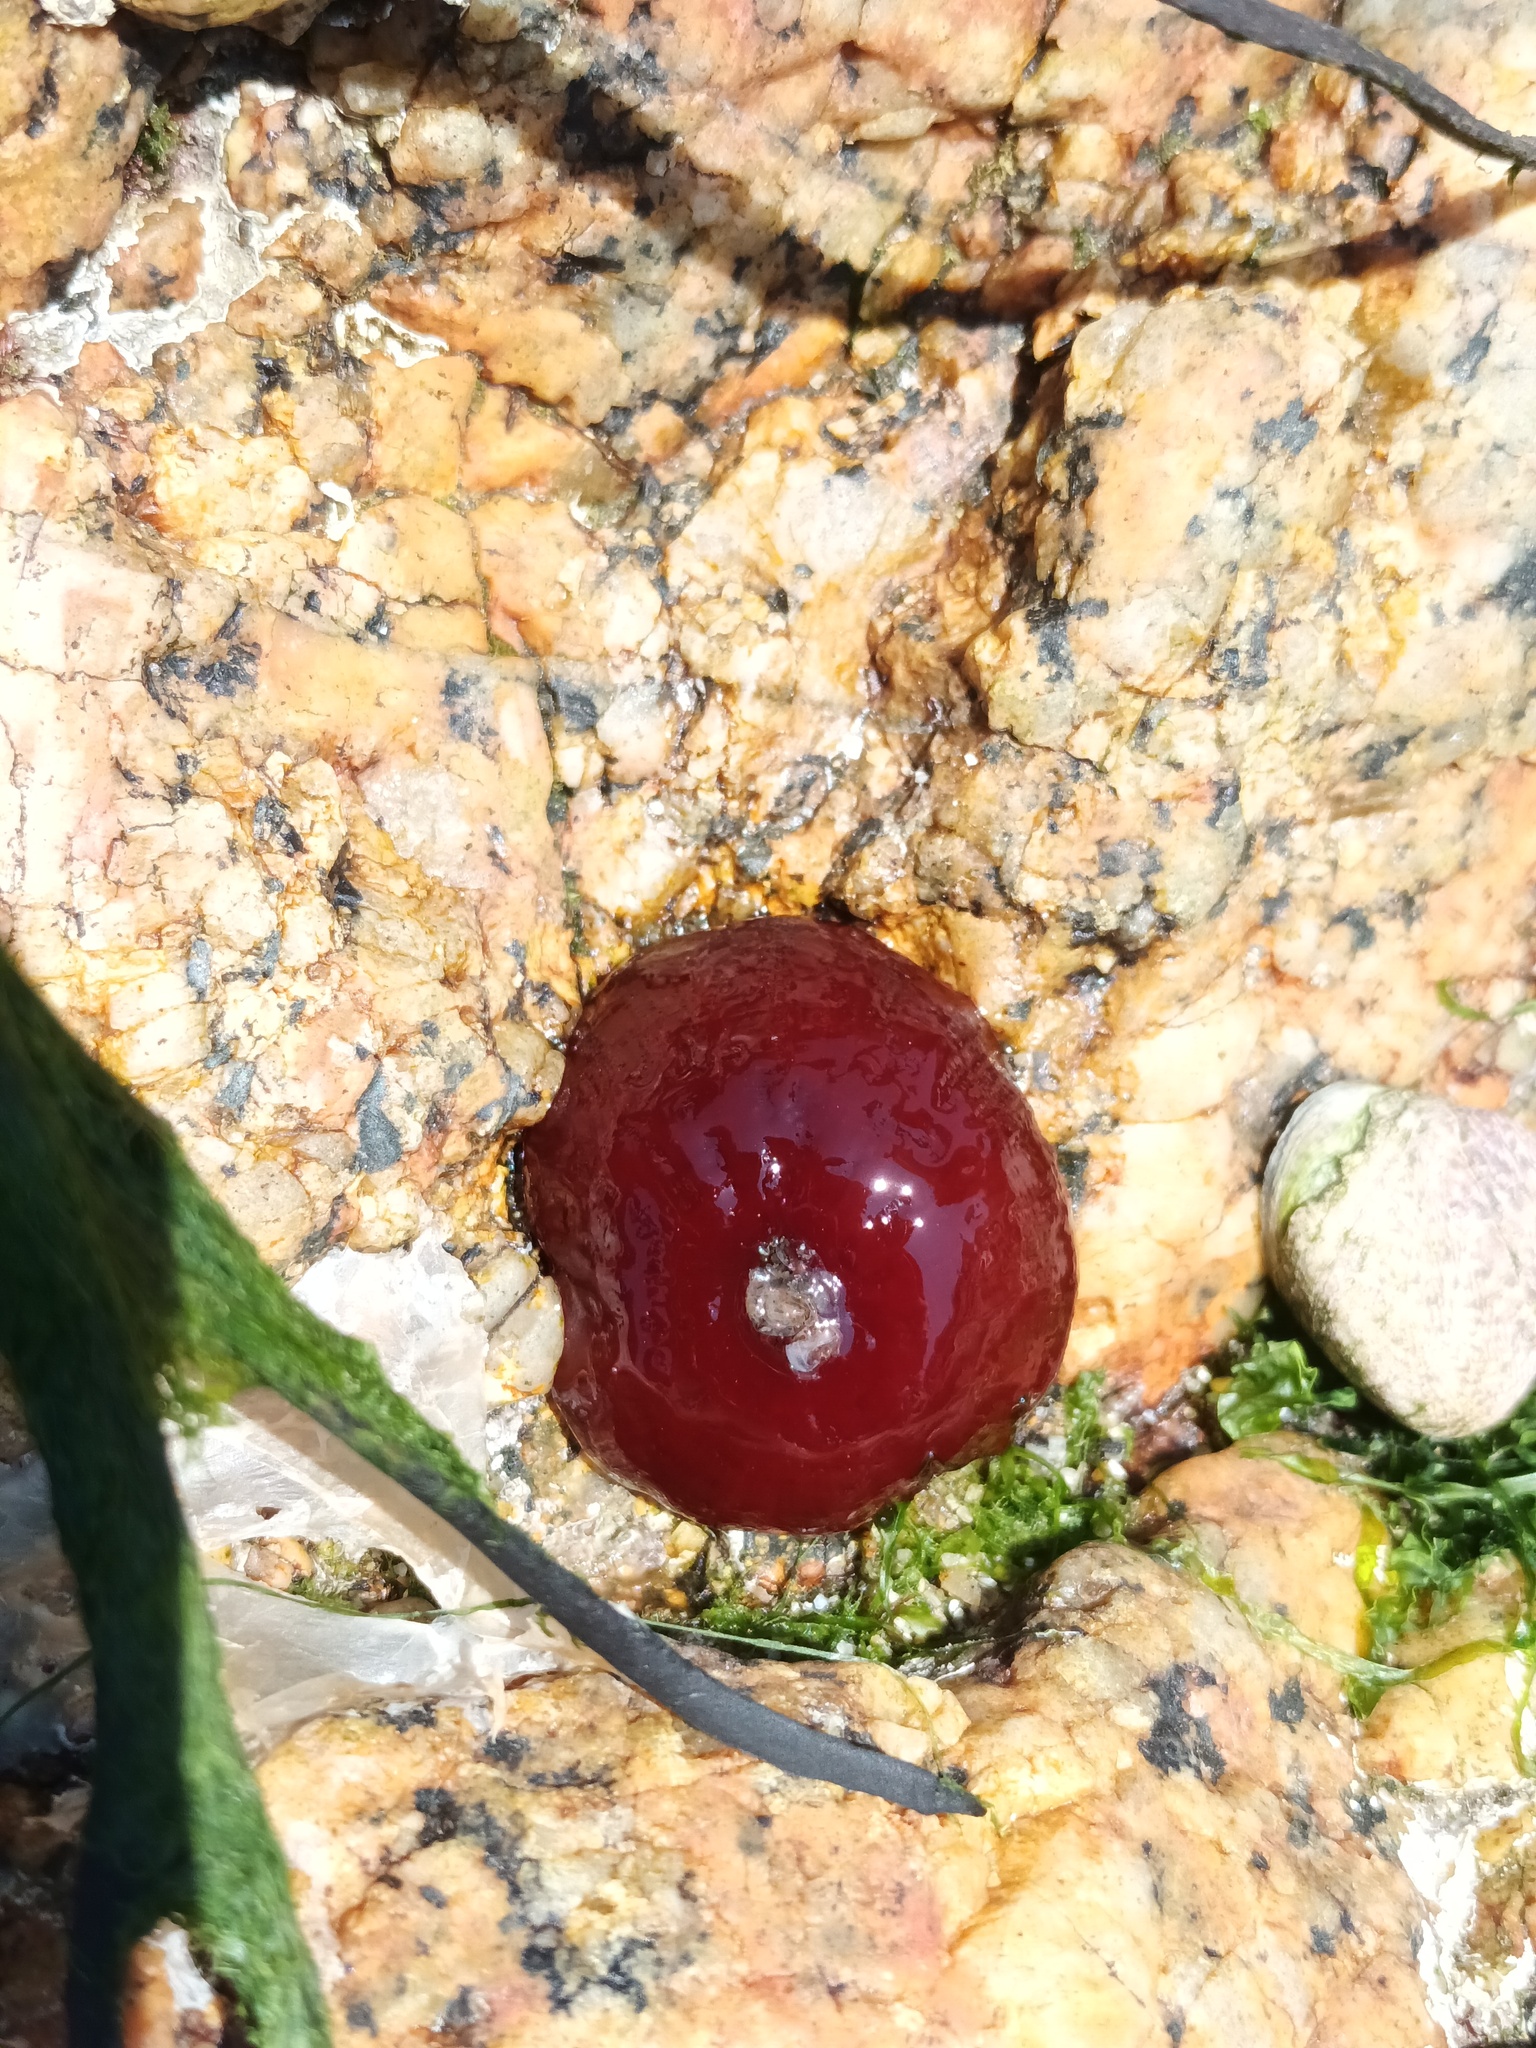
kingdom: Animalia
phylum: Cnidaria
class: Anthozoa
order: Actiniaria
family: Actiniidae
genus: Actinia
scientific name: Actinia equina
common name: Beadlet anemone
